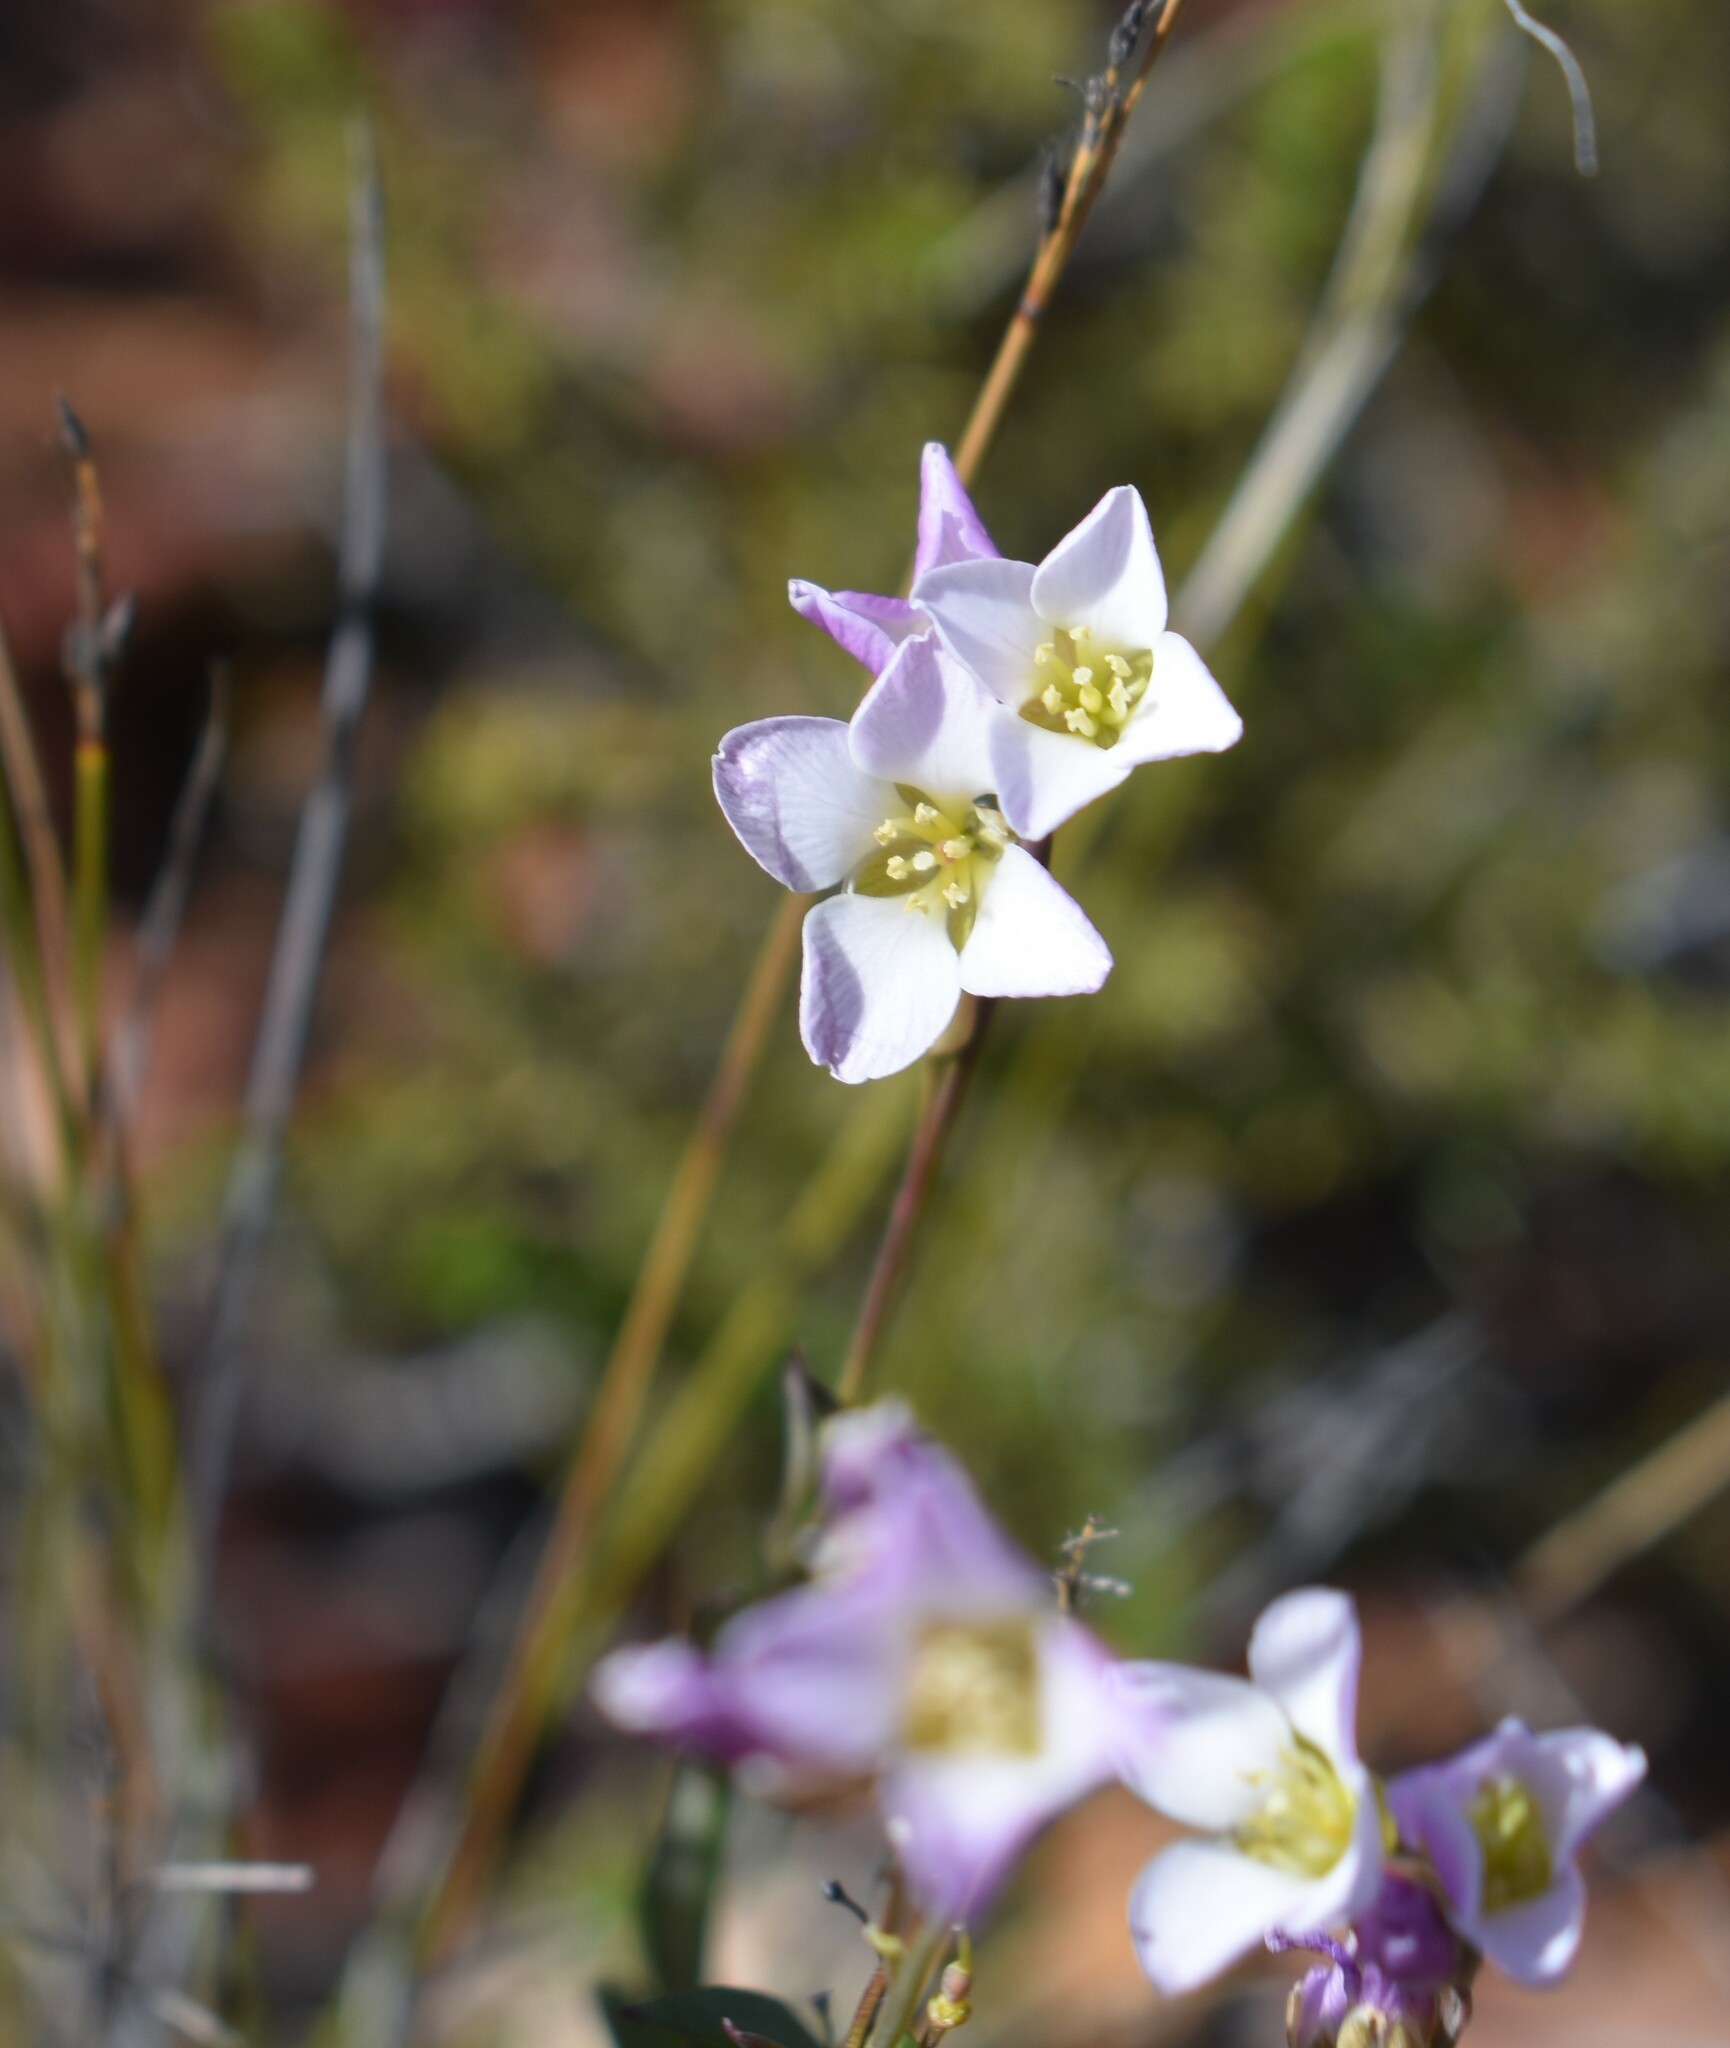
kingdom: Plantae
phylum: Tracheophyta
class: Magnoliopsida
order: Brassicales
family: Brassicaceae
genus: Heliophila
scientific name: Heliophila glauca
